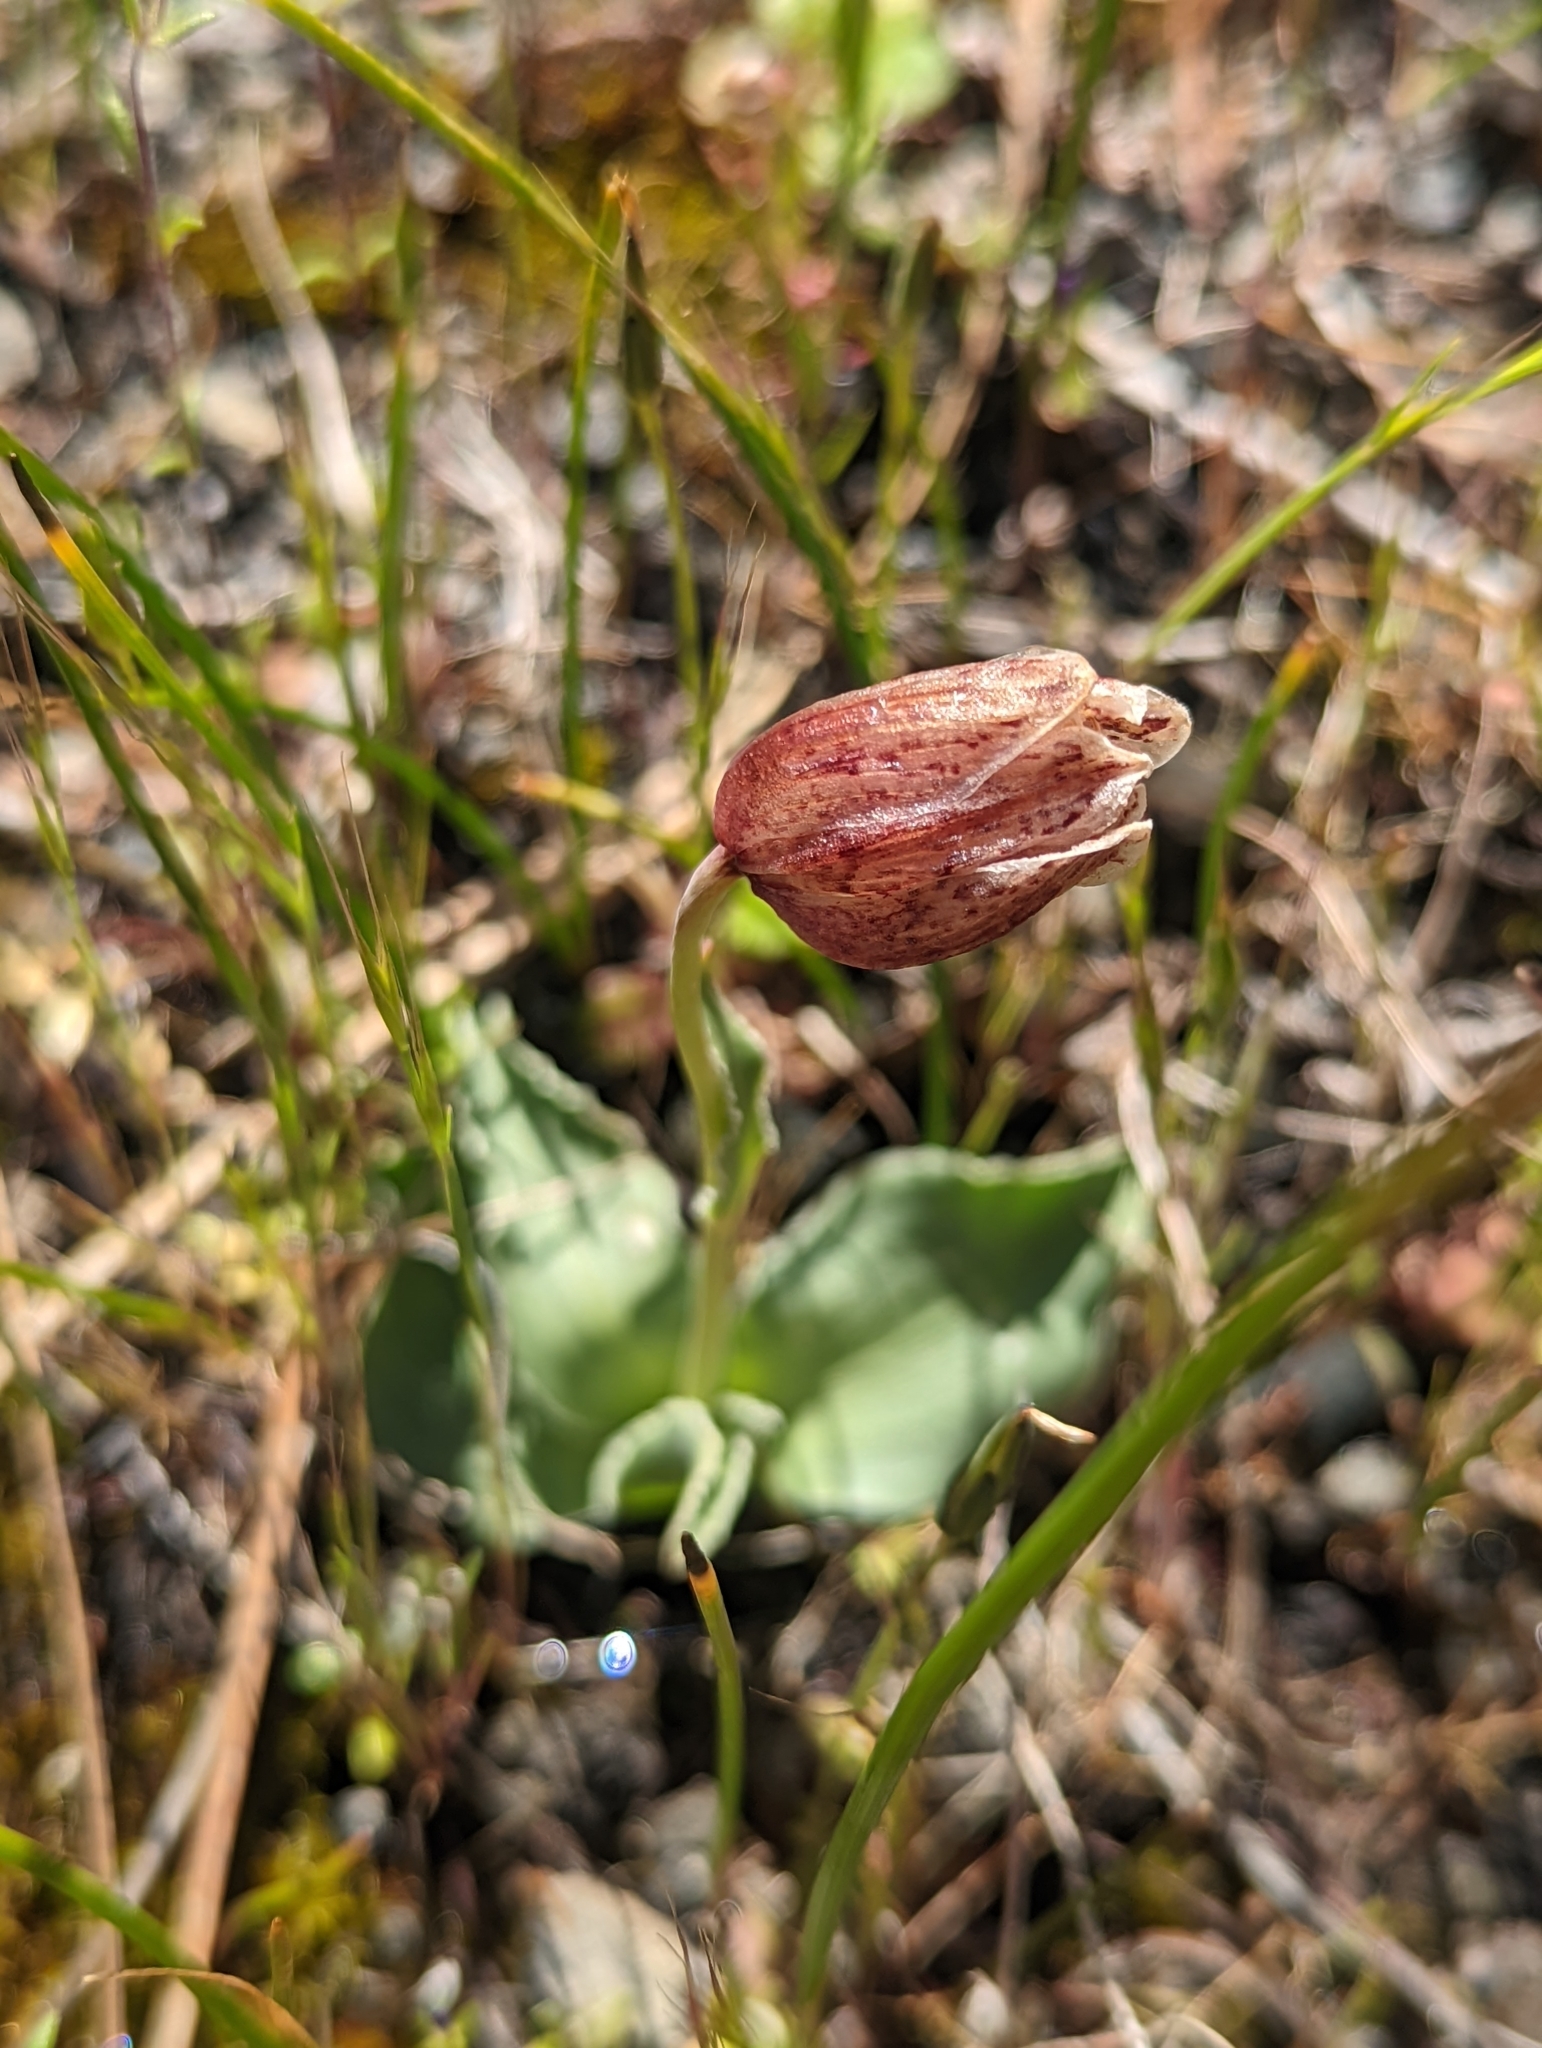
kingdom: Plantae
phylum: Tracheophyta
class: Liliopsida
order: Liliales
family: Liliaceae
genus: Fritillaria
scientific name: Fritillaria purdyi
